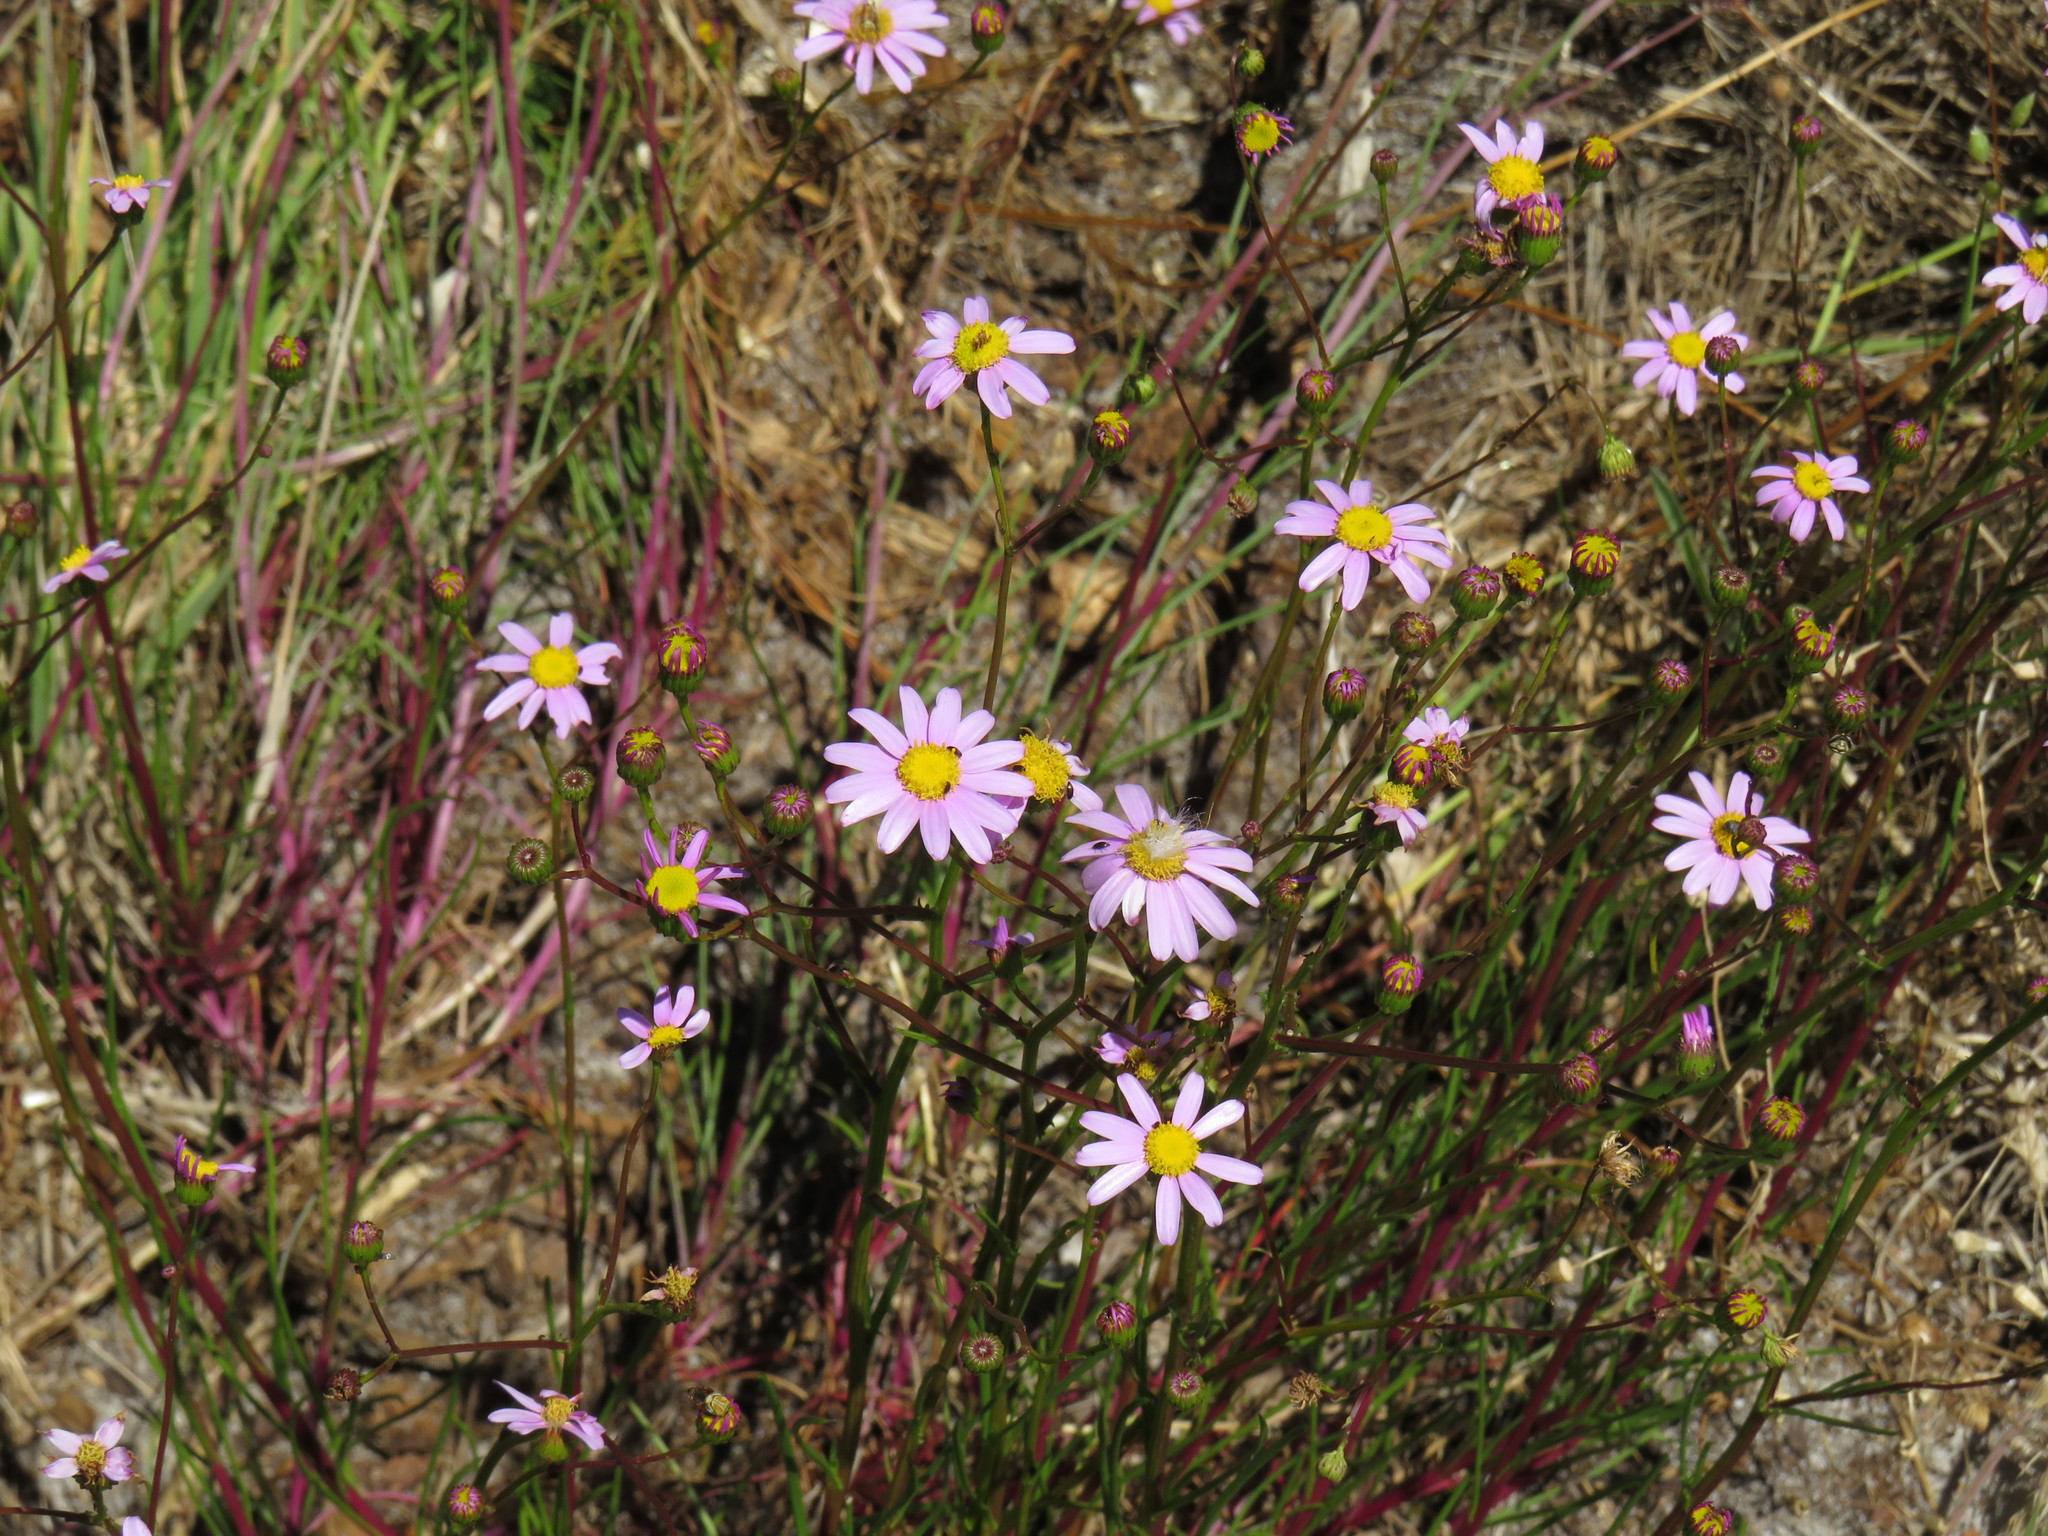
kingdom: Plantae
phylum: Tracheophyta
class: Magnoliopsida
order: Asterales
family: Asteraceae
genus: Senecio
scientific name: Senecio umbellatus
